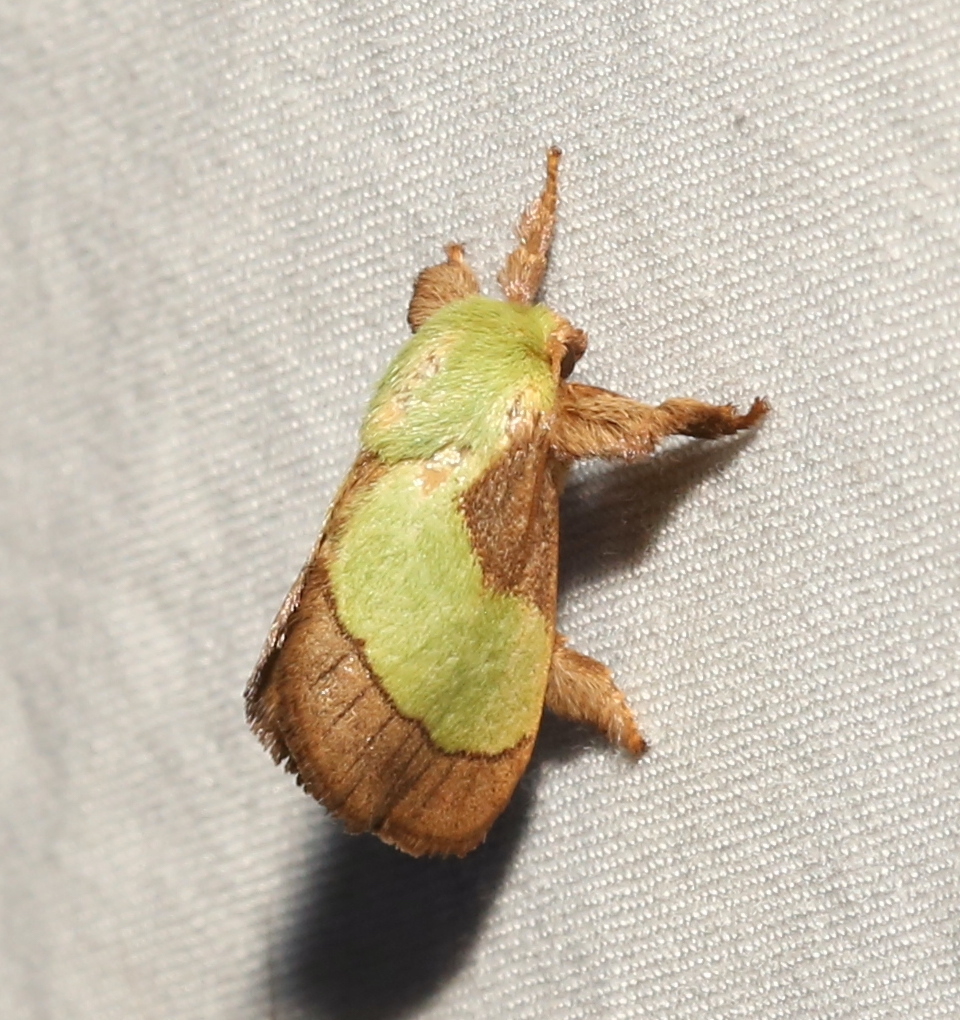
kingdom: Animalia
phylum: Arthropoda
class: Insecta
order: Lepidoptera
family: Limacodidae
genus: Parasa
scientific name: Parasa chloris
